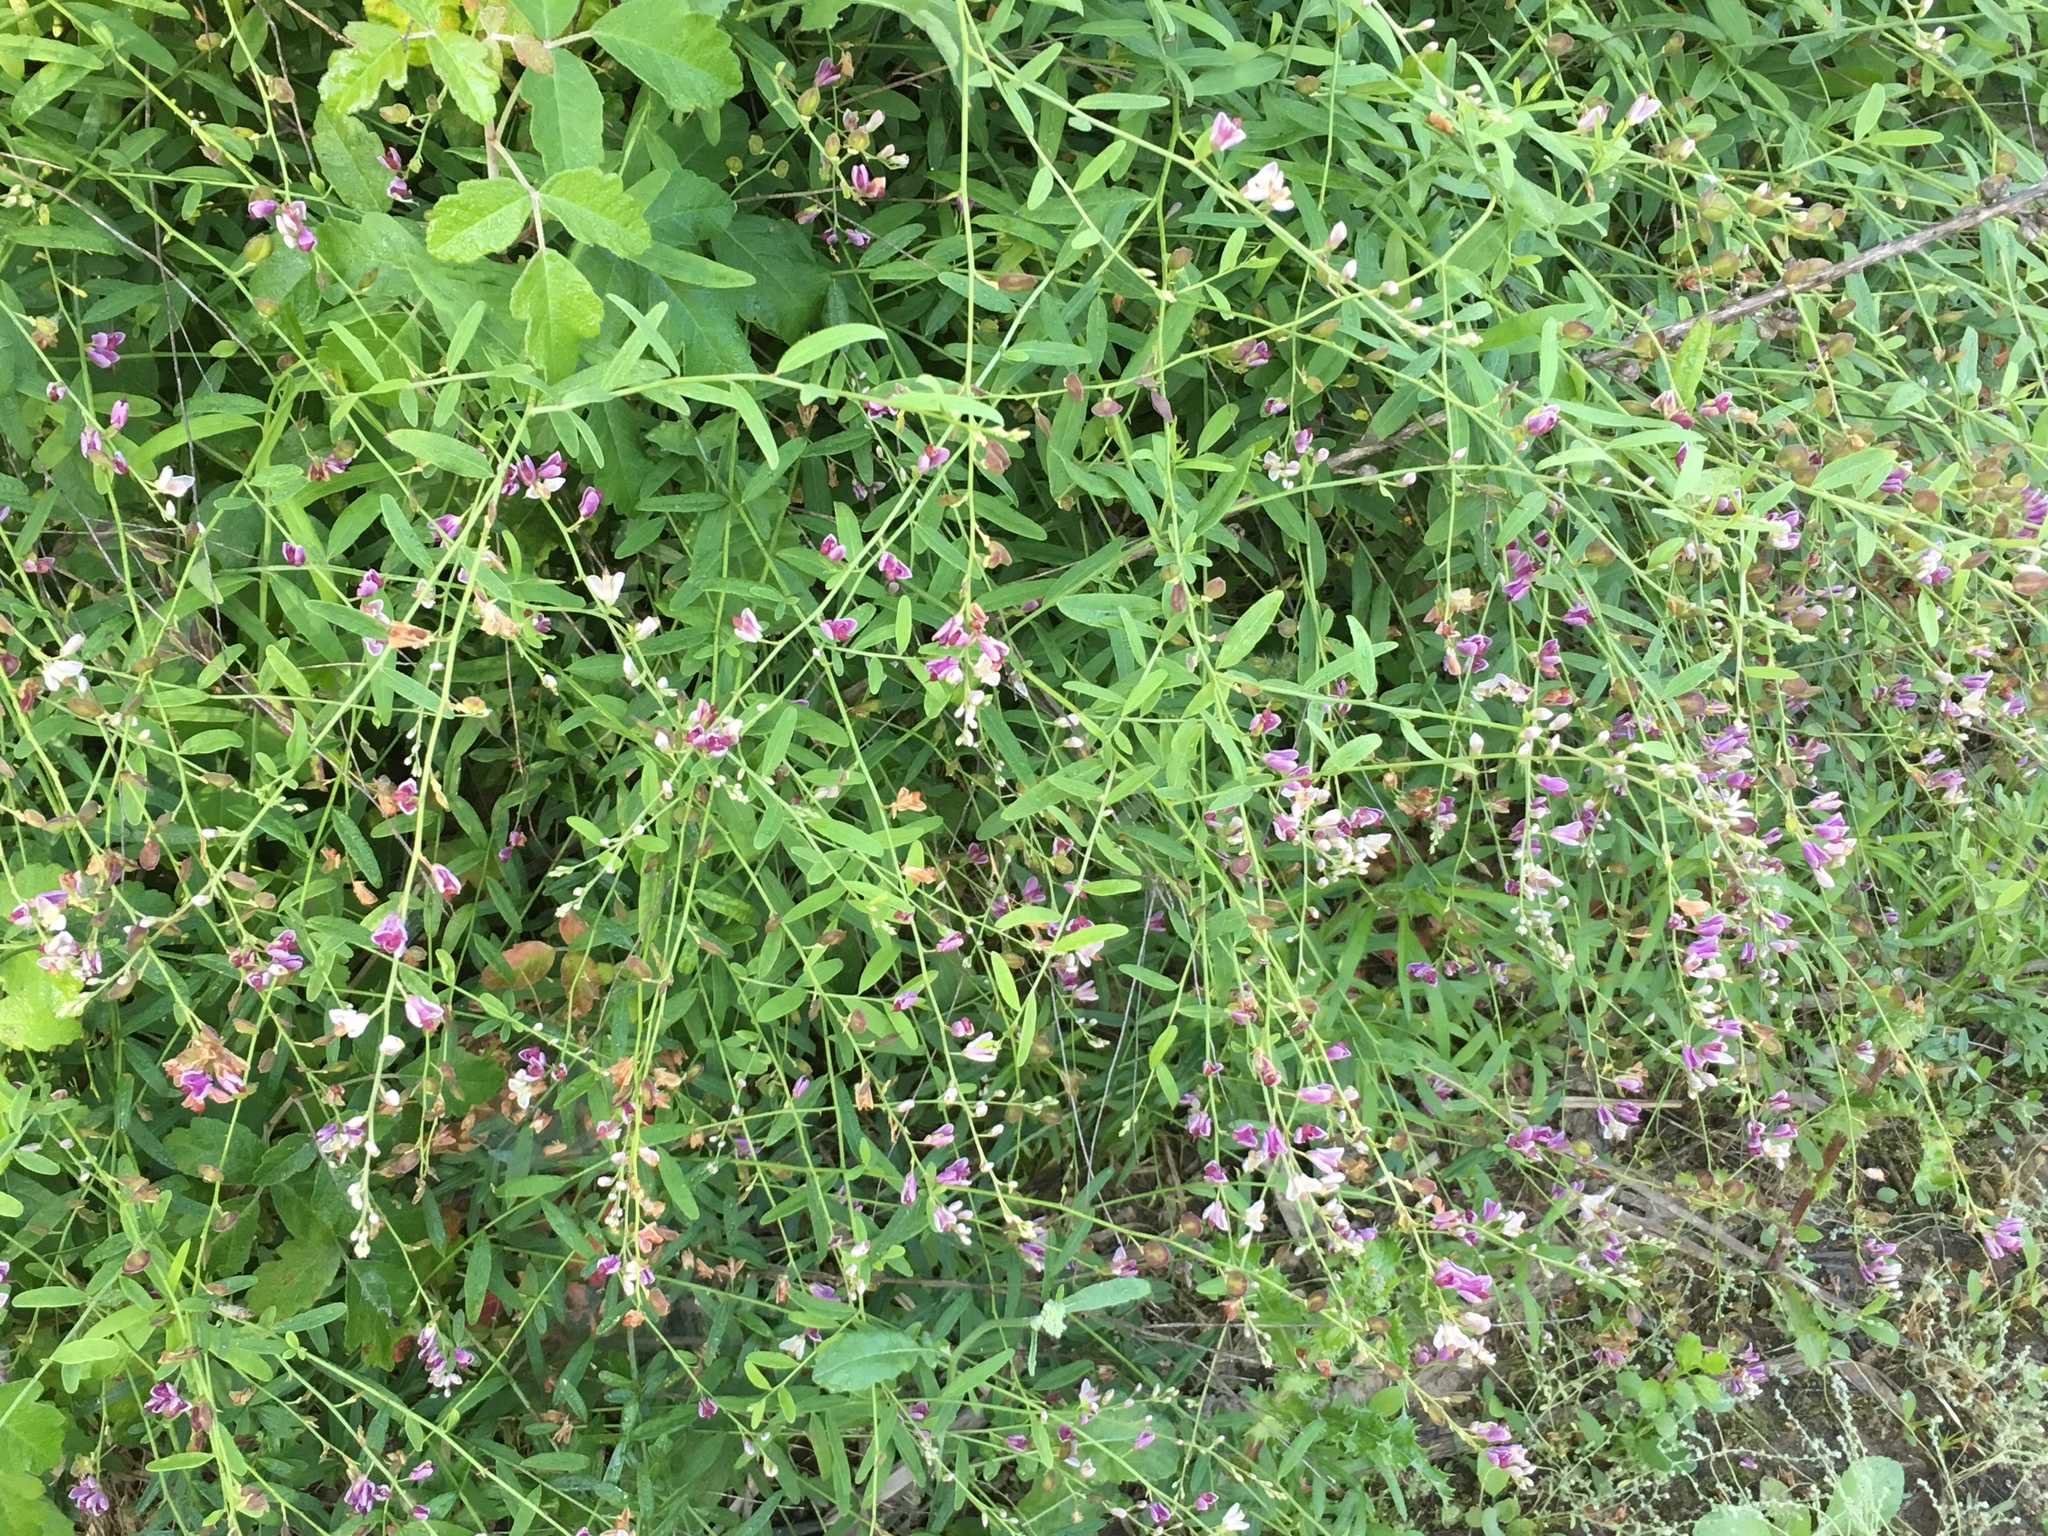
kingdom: Plantae
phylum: Tracheophyta
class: Magnoliopsida
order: Fabales
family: Polygalaceae
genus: Rhinotropis
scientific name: Rhinotropis cornuta
